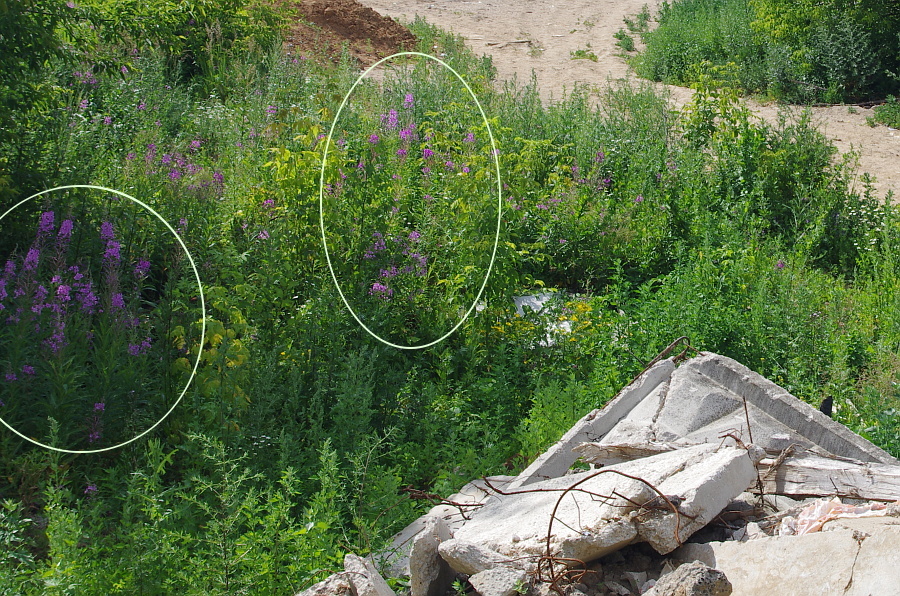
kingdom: Plantae
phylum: Tracheophyta
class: Magnoliopsida
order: Myrtales
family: Onagraceae
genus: Chamaenerion
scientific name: Chamaenerion angustifolium
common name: Fireweed
